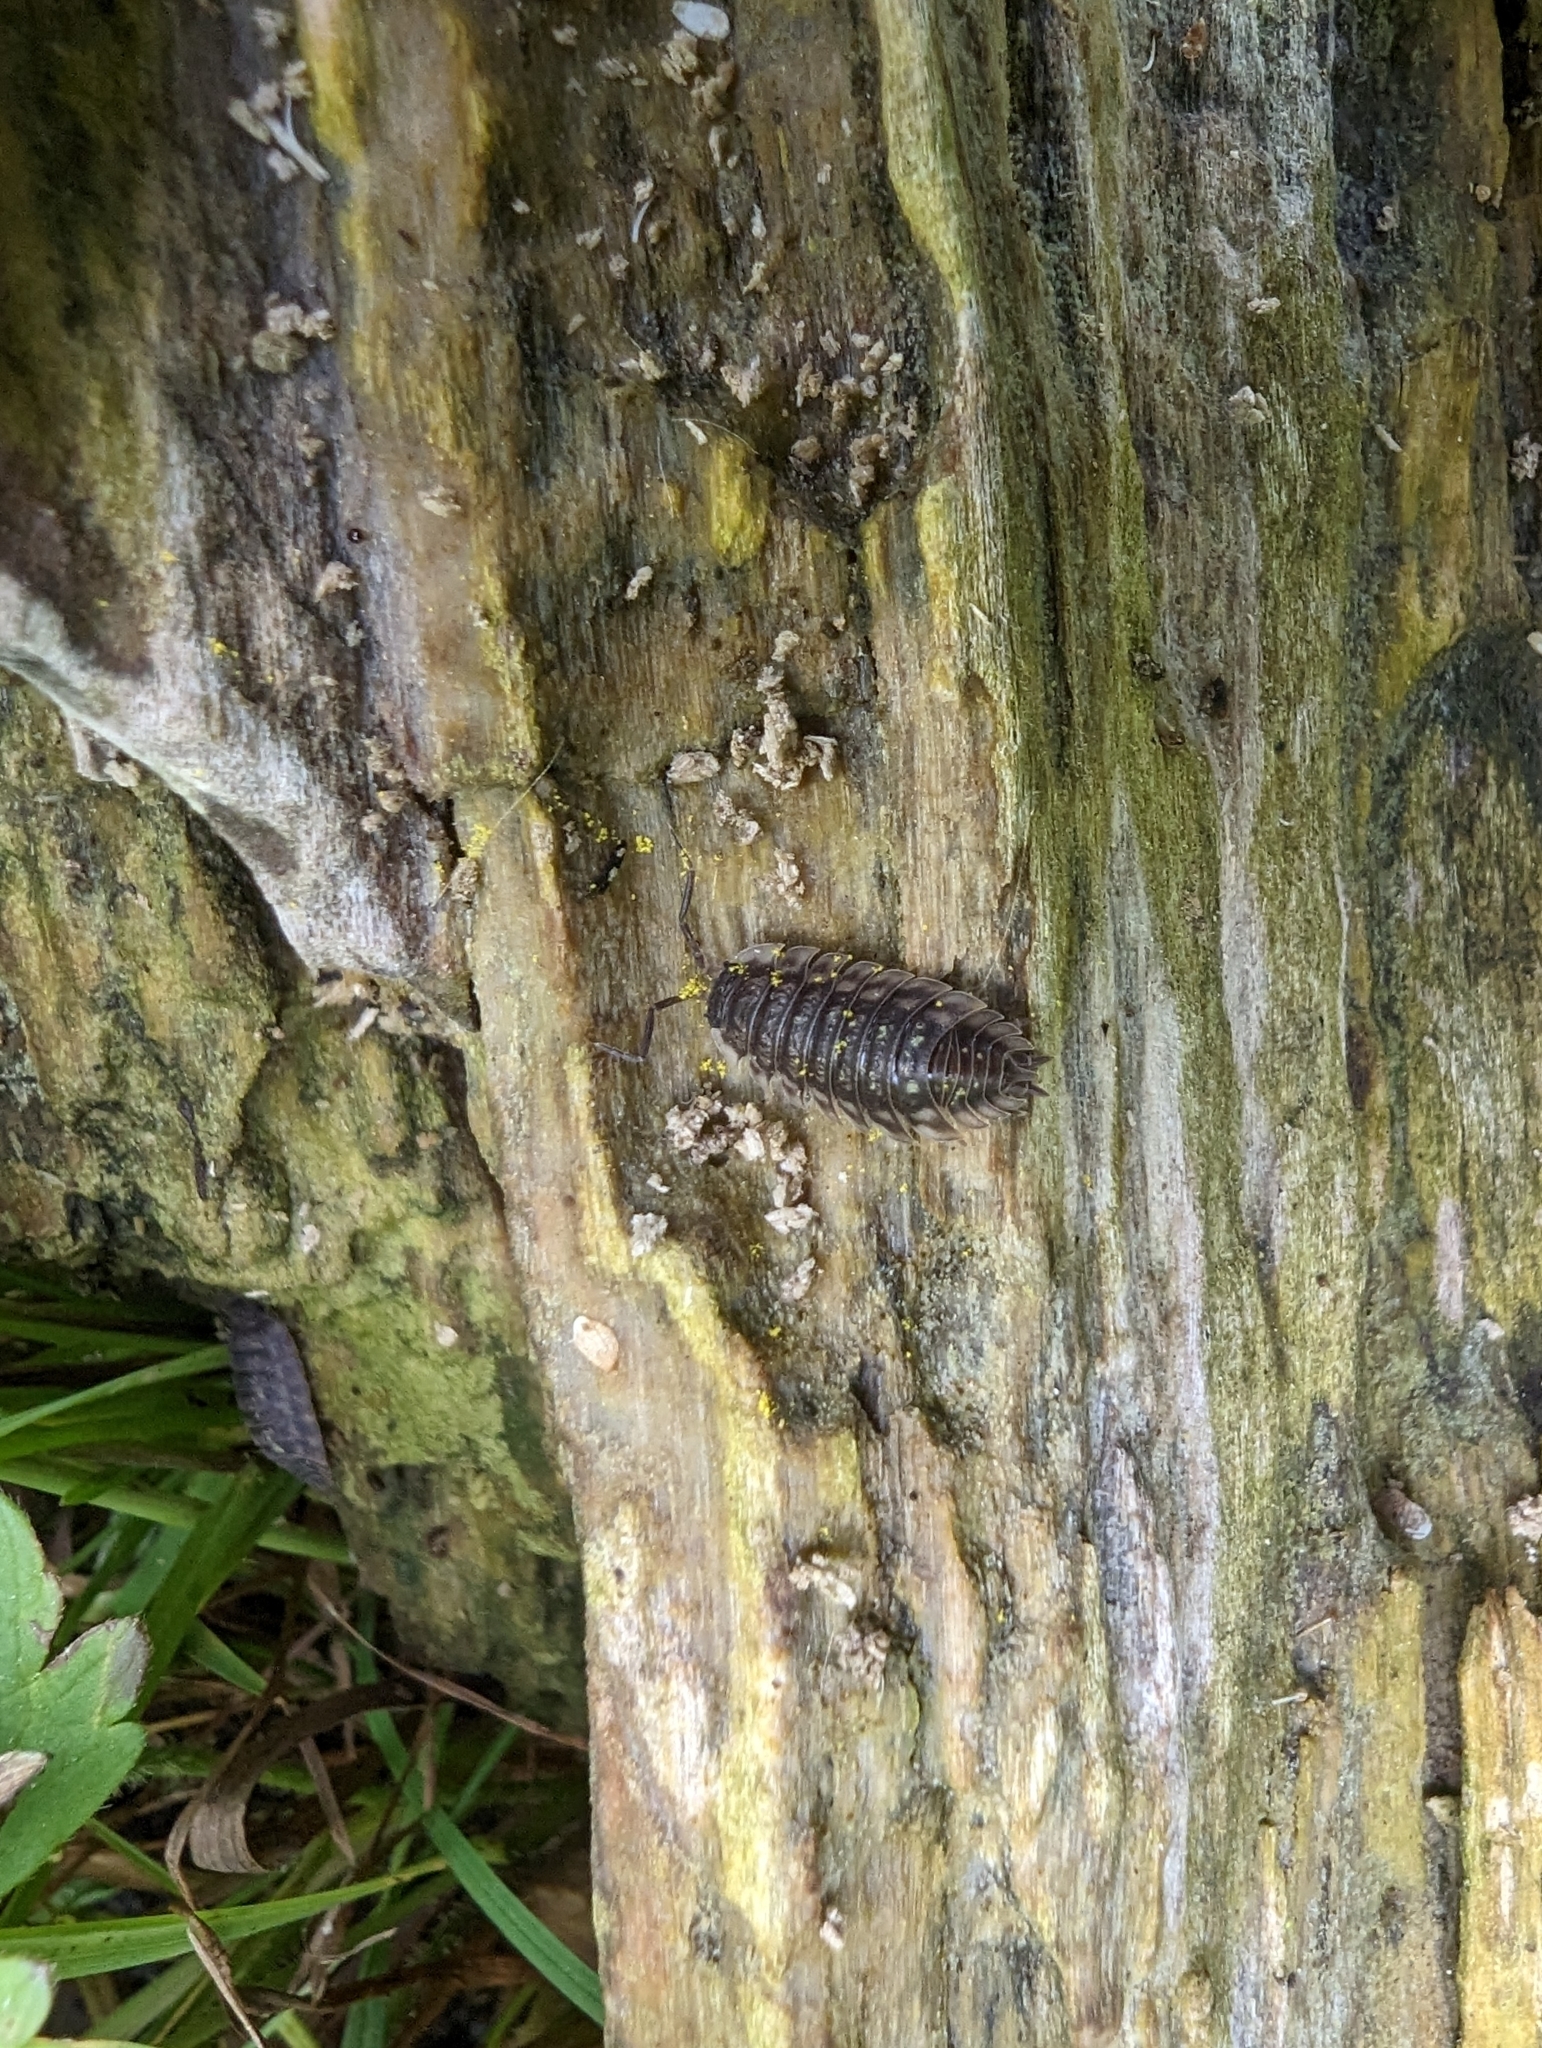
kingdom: Animalia
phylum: Arthropoda
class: Malacostraca
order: Isopoda
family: Oniscidae
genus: Oniscus
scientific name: Oniscus asellus
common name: Common shiny woodlouse
